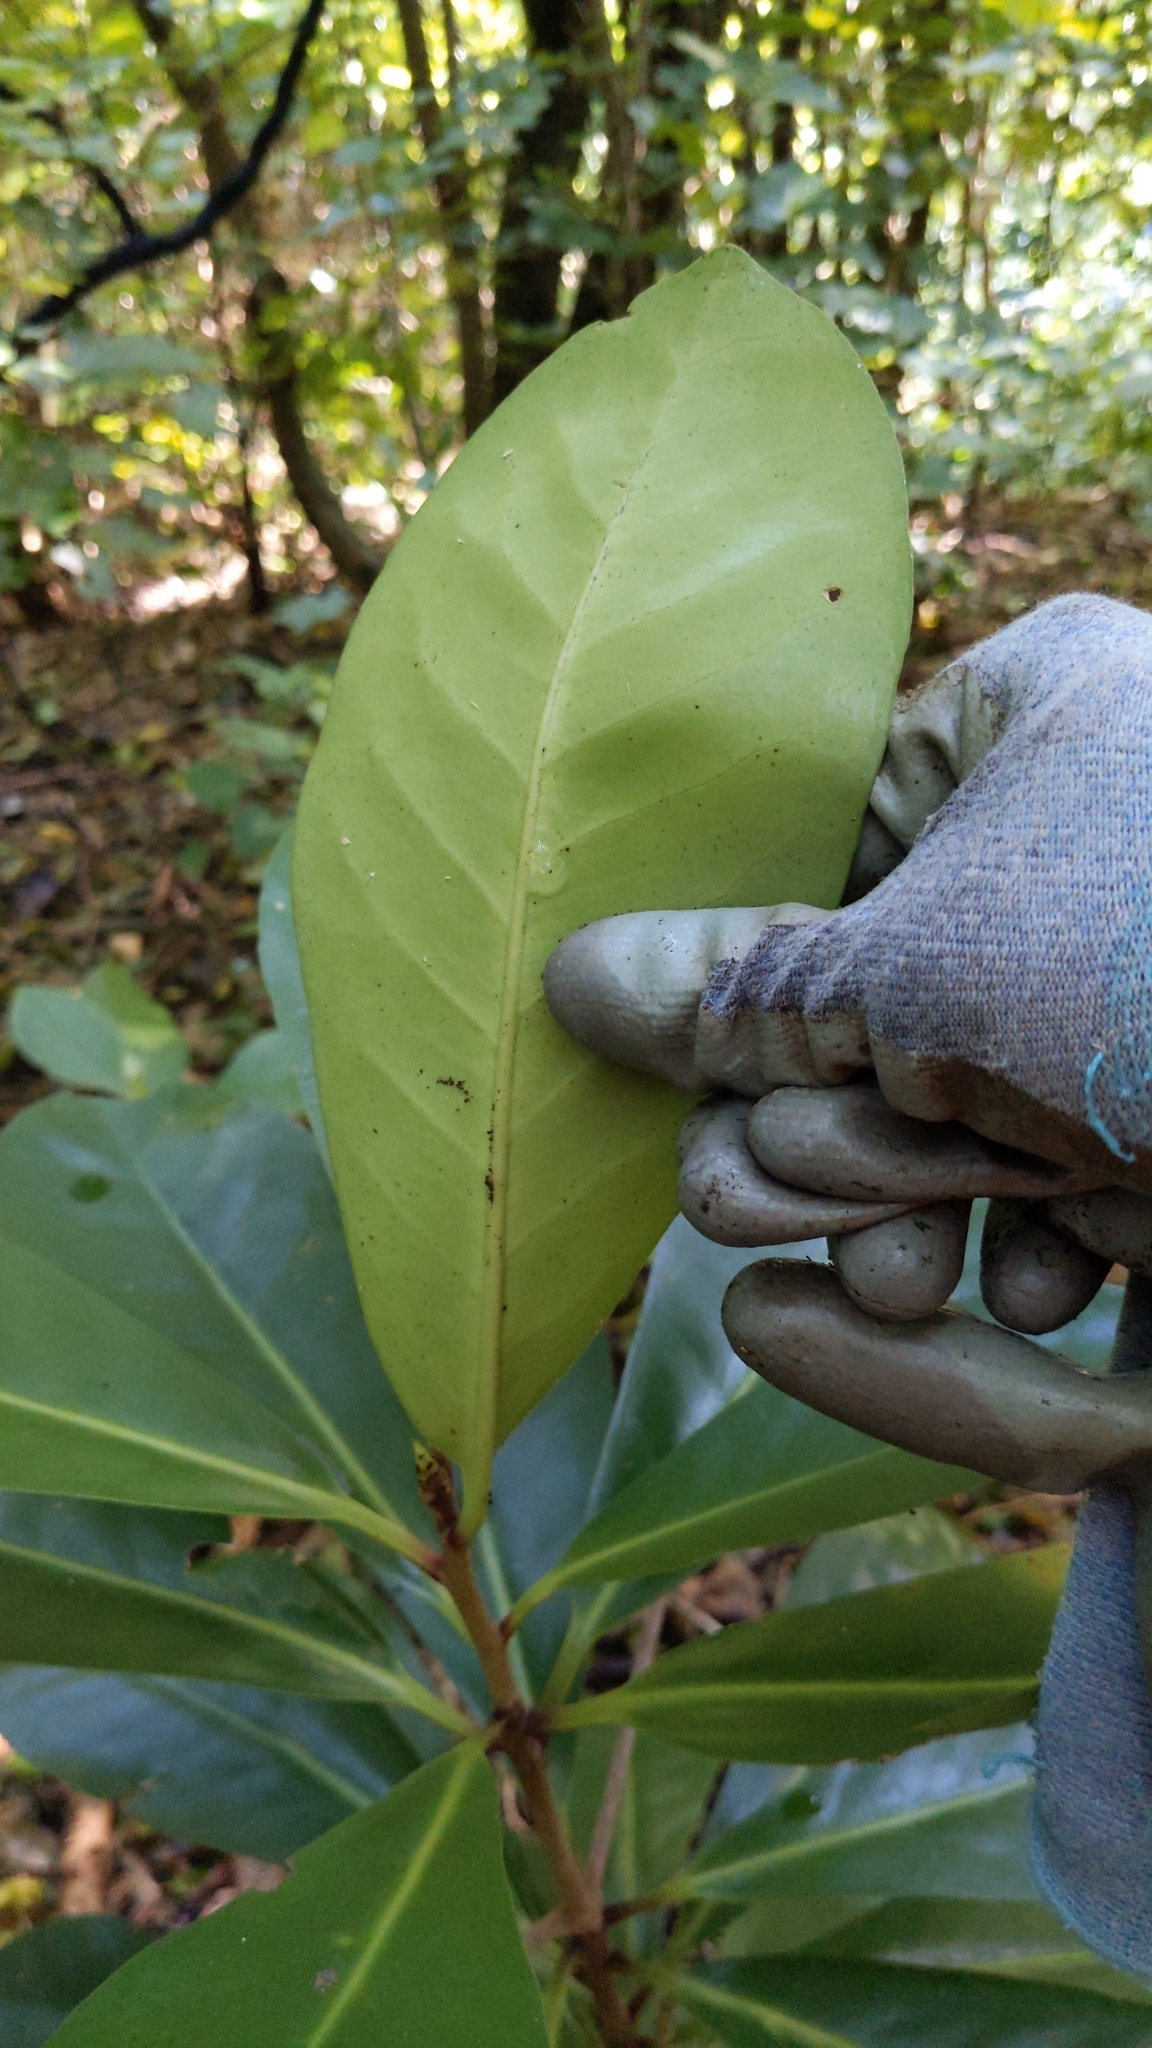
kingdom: Plantae
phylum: Tracheophyta
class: Magnoliopsida
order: Cucurbitales
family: Corynocarpaceae
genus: Corynocarpus
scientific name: Corynocarpus laevigatus
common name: New zealand laurel
